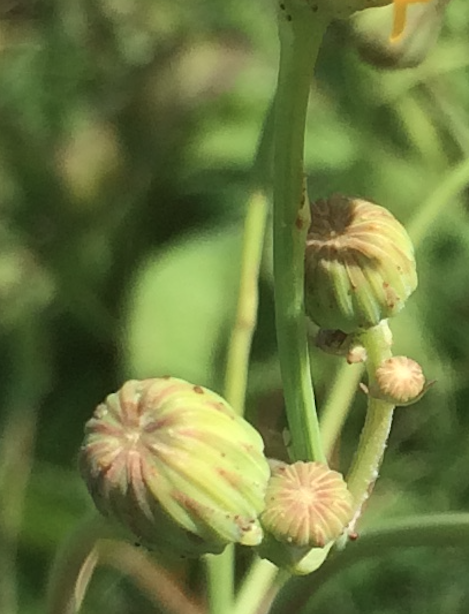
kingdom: Plantae
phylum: Tracheophyta
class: Magnoliopsida
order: Asterales
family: Asteraceae
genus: Sonchus
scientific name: Sonchus arvensis
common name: Perennial sow-thistle
